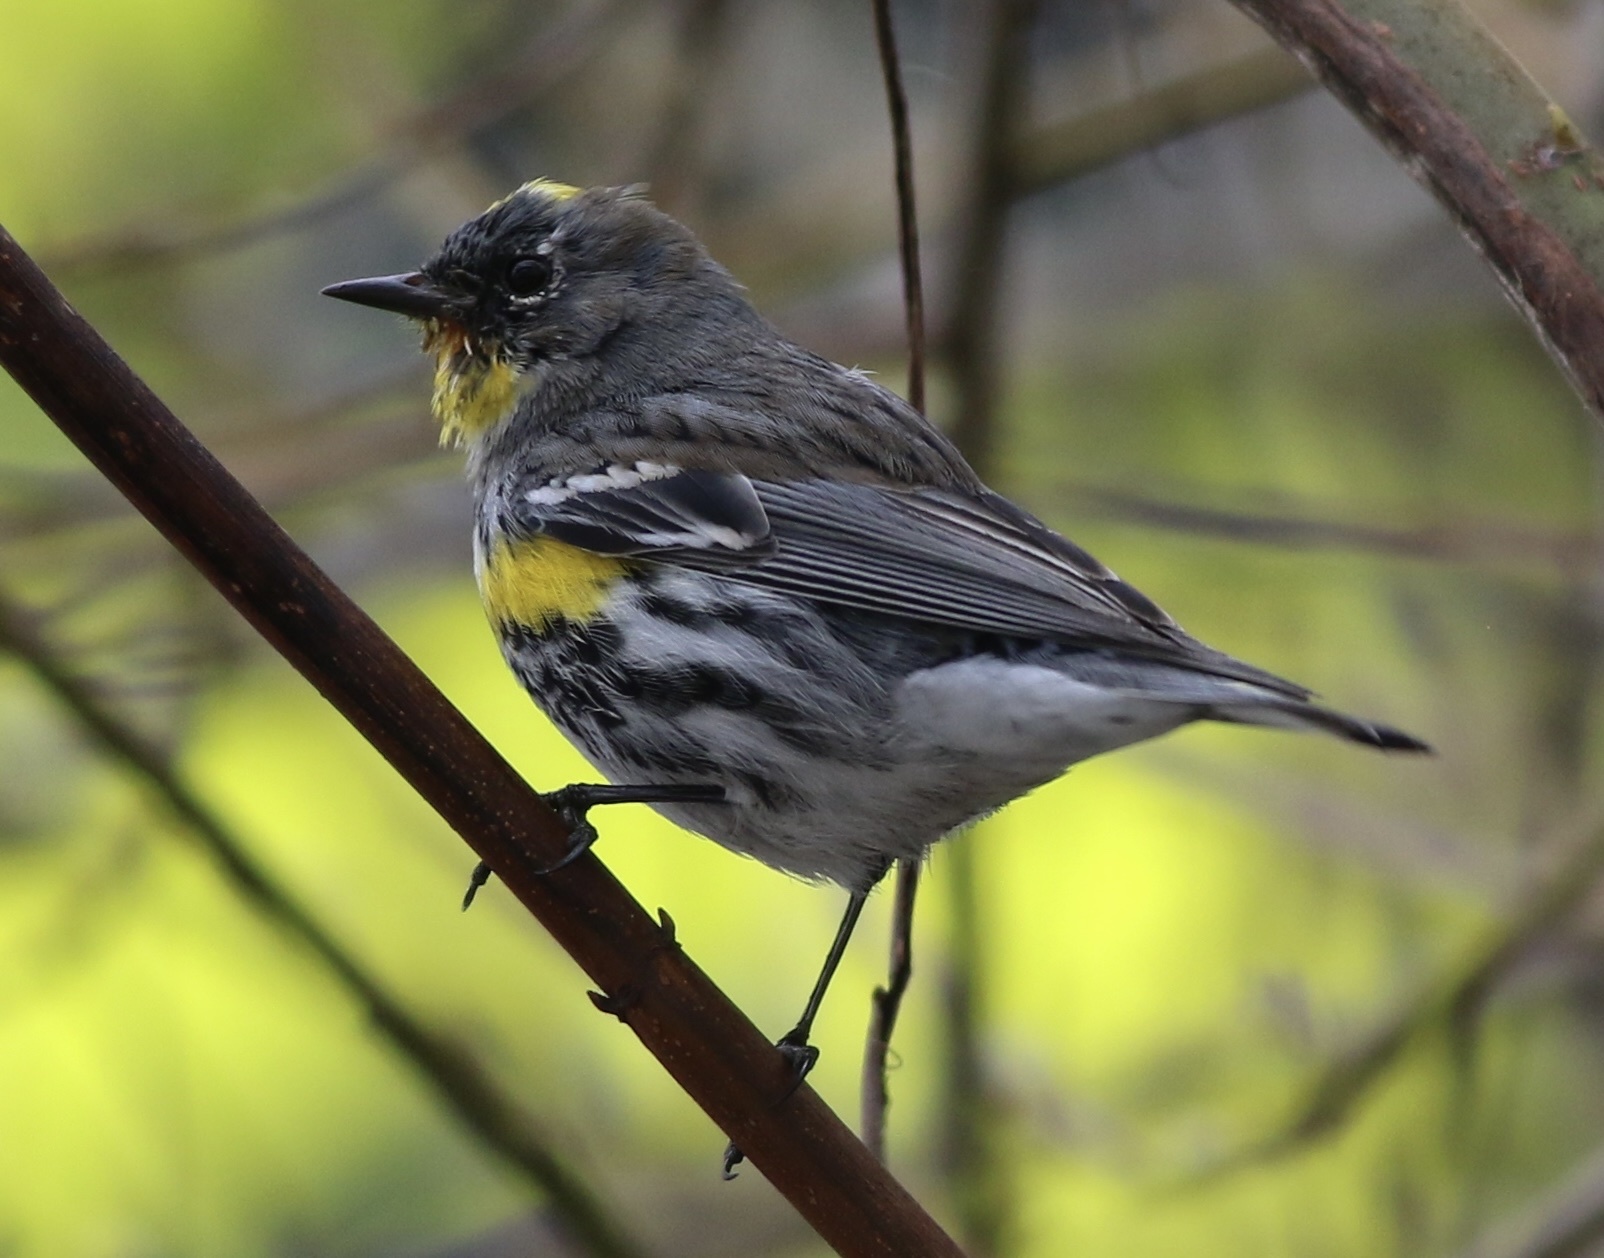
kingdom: Animalia
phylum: Chordata
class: Aves
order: Passeriformes
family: Parulidae
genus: Setophaga
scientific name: Setophaga coronata
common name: Myrtle warbler
